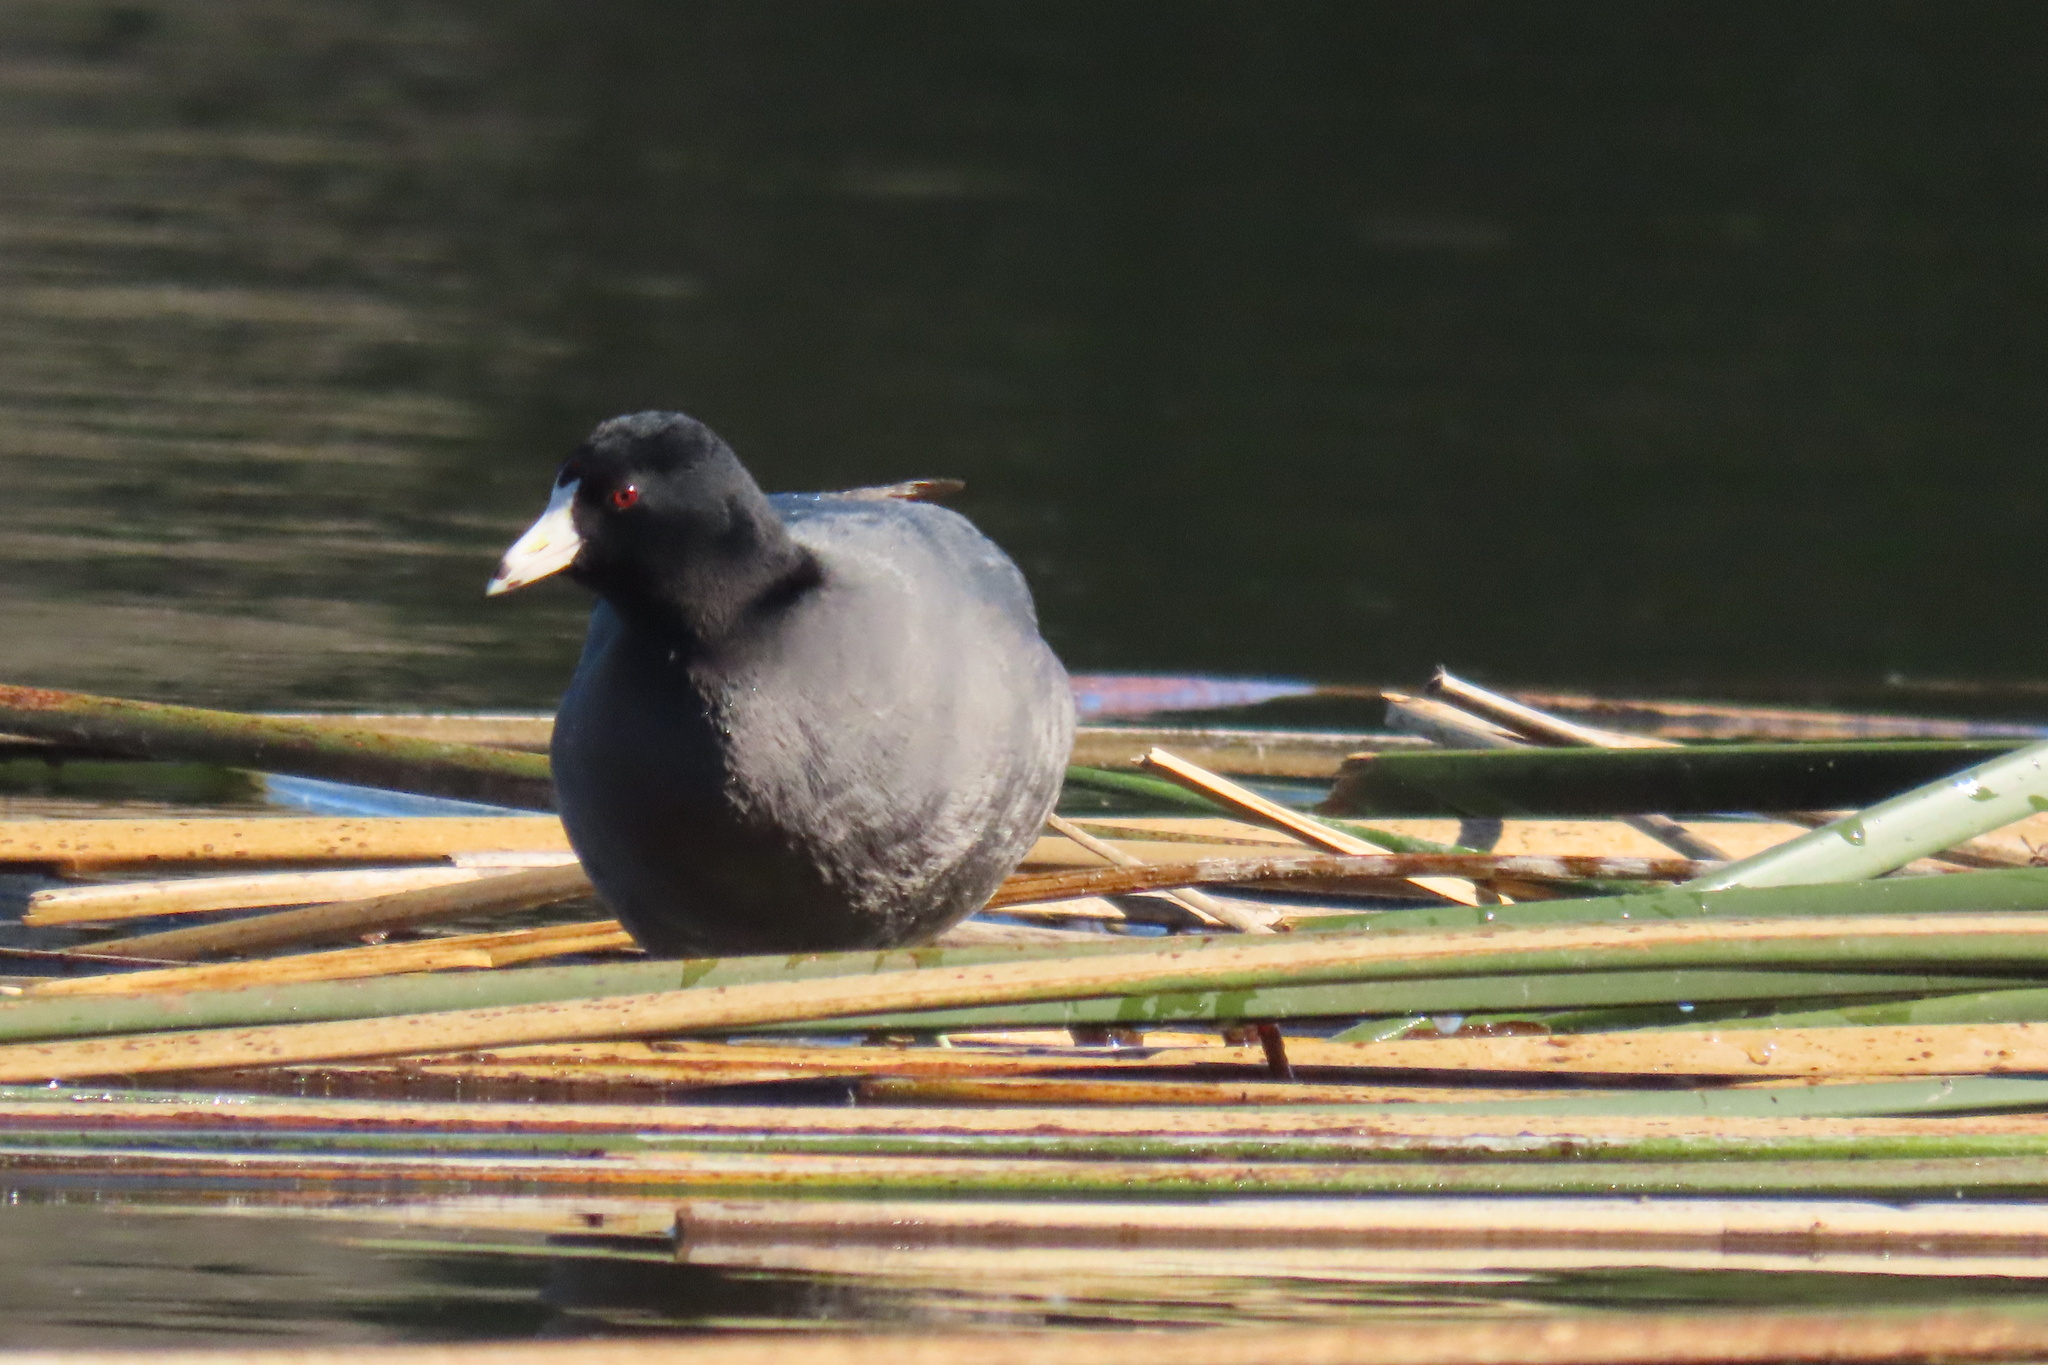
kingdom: Animalia
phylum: Chordata
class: Aves
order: Gruiformes
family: Rallidae
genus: Fulica
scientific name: Fulica americana
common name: American coot
